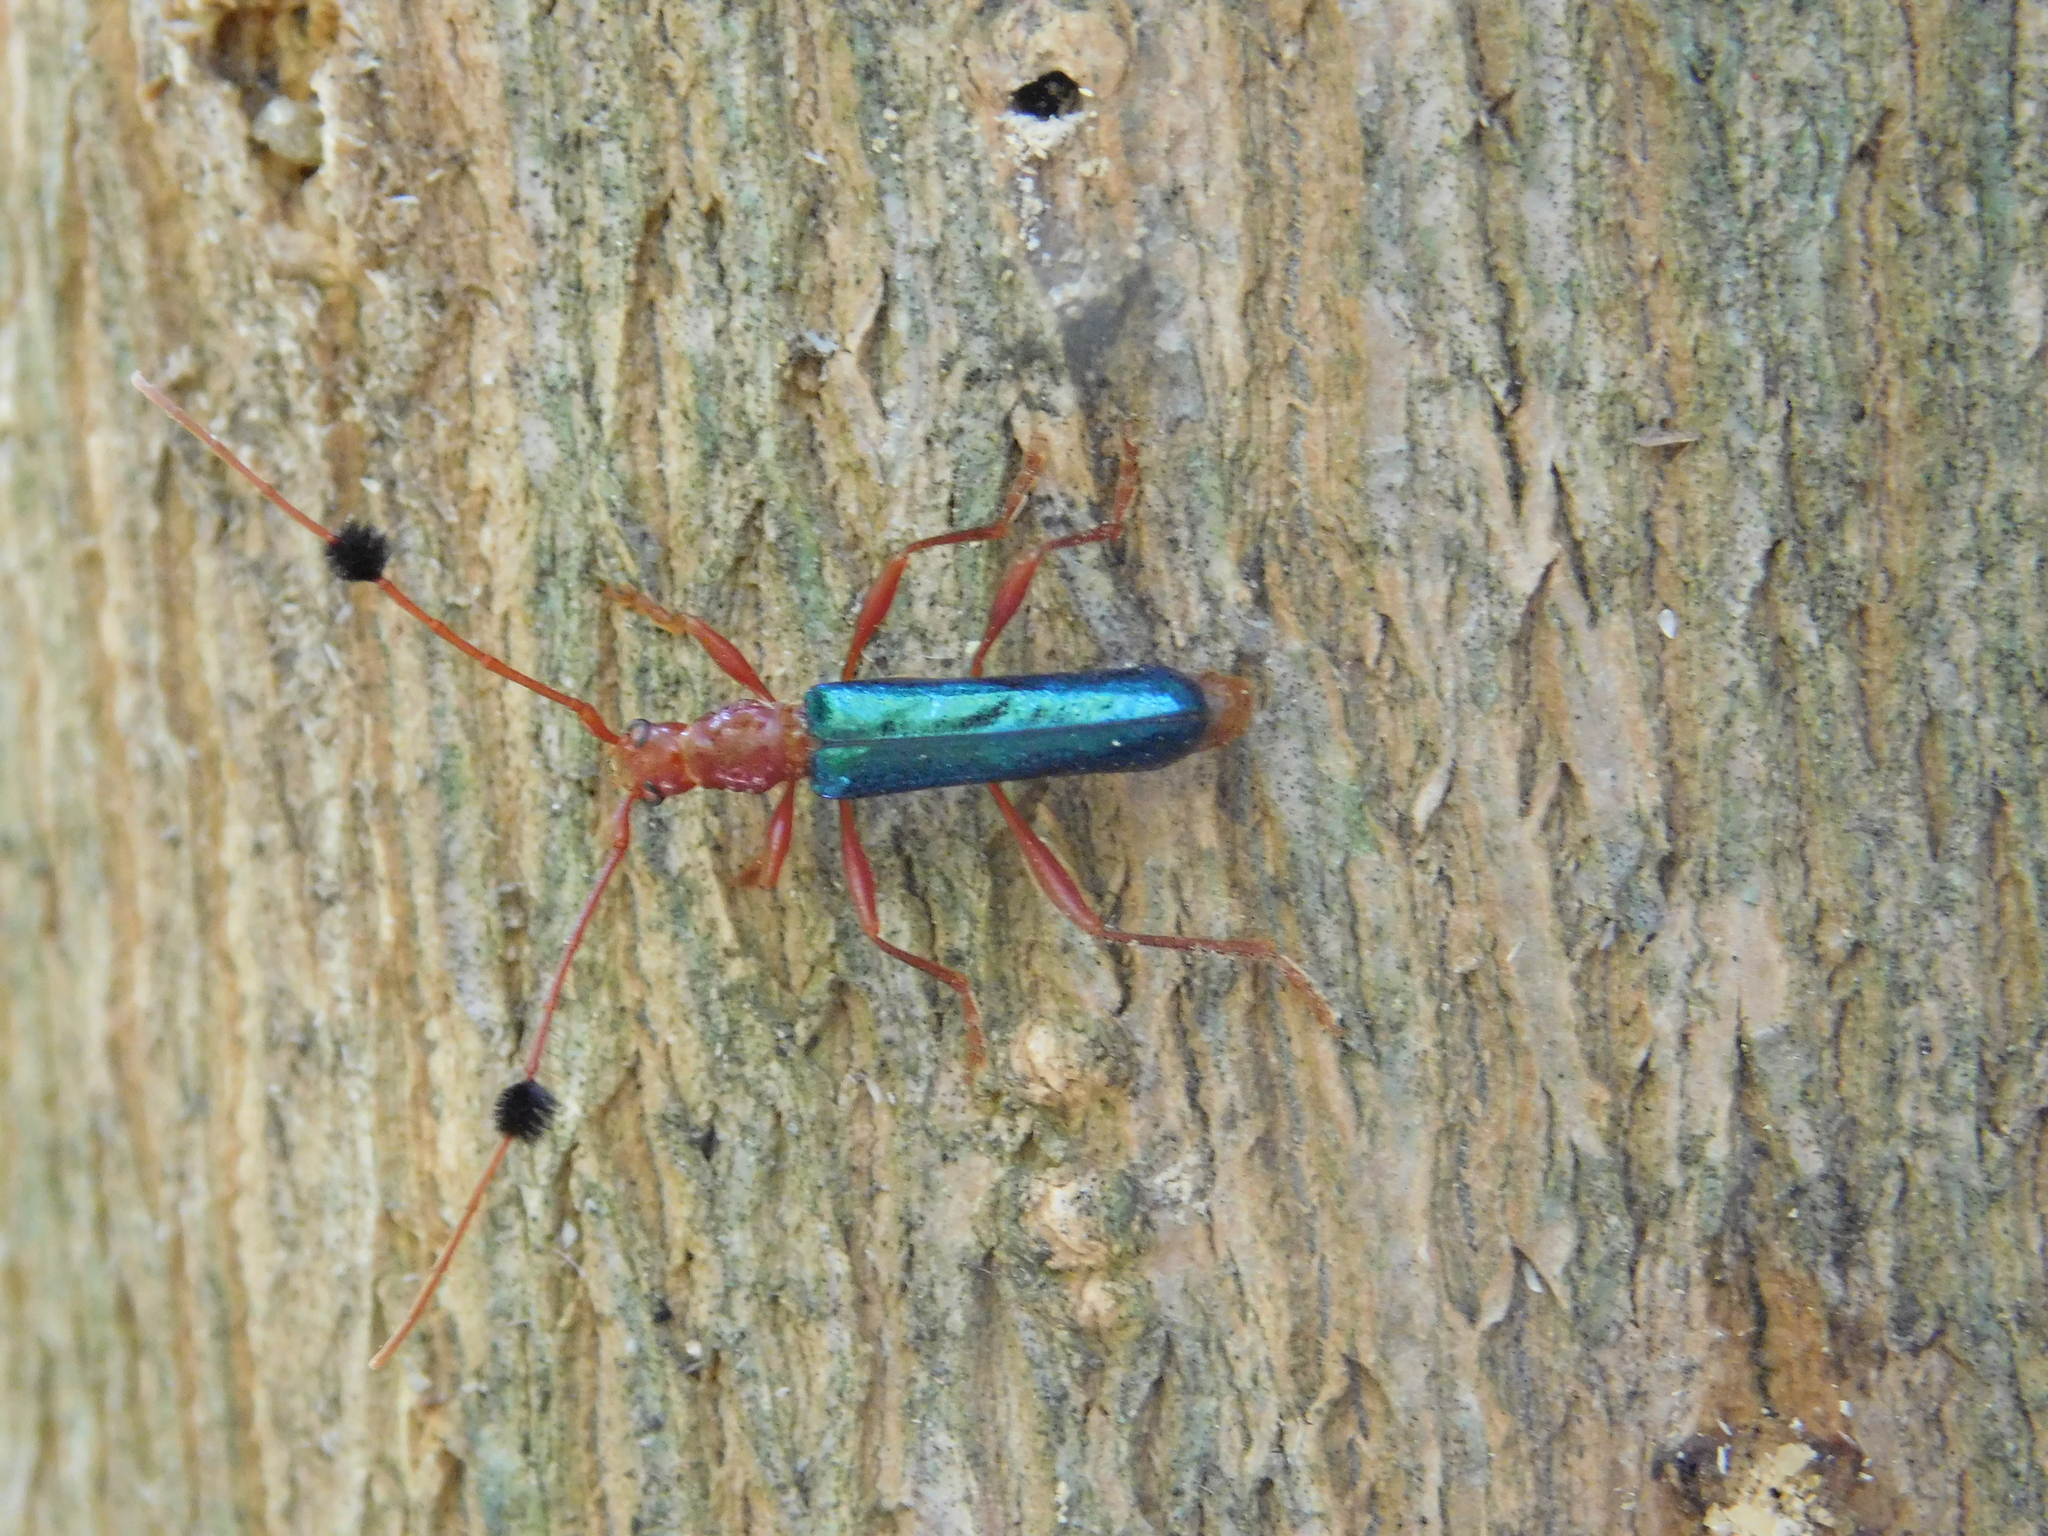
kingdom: Animalia
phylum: Arthropoda
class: Insecta
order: Coleoptera
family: Cerambycidae
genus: Paromoeocerus
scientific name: Paromoeocerus barbicornis
